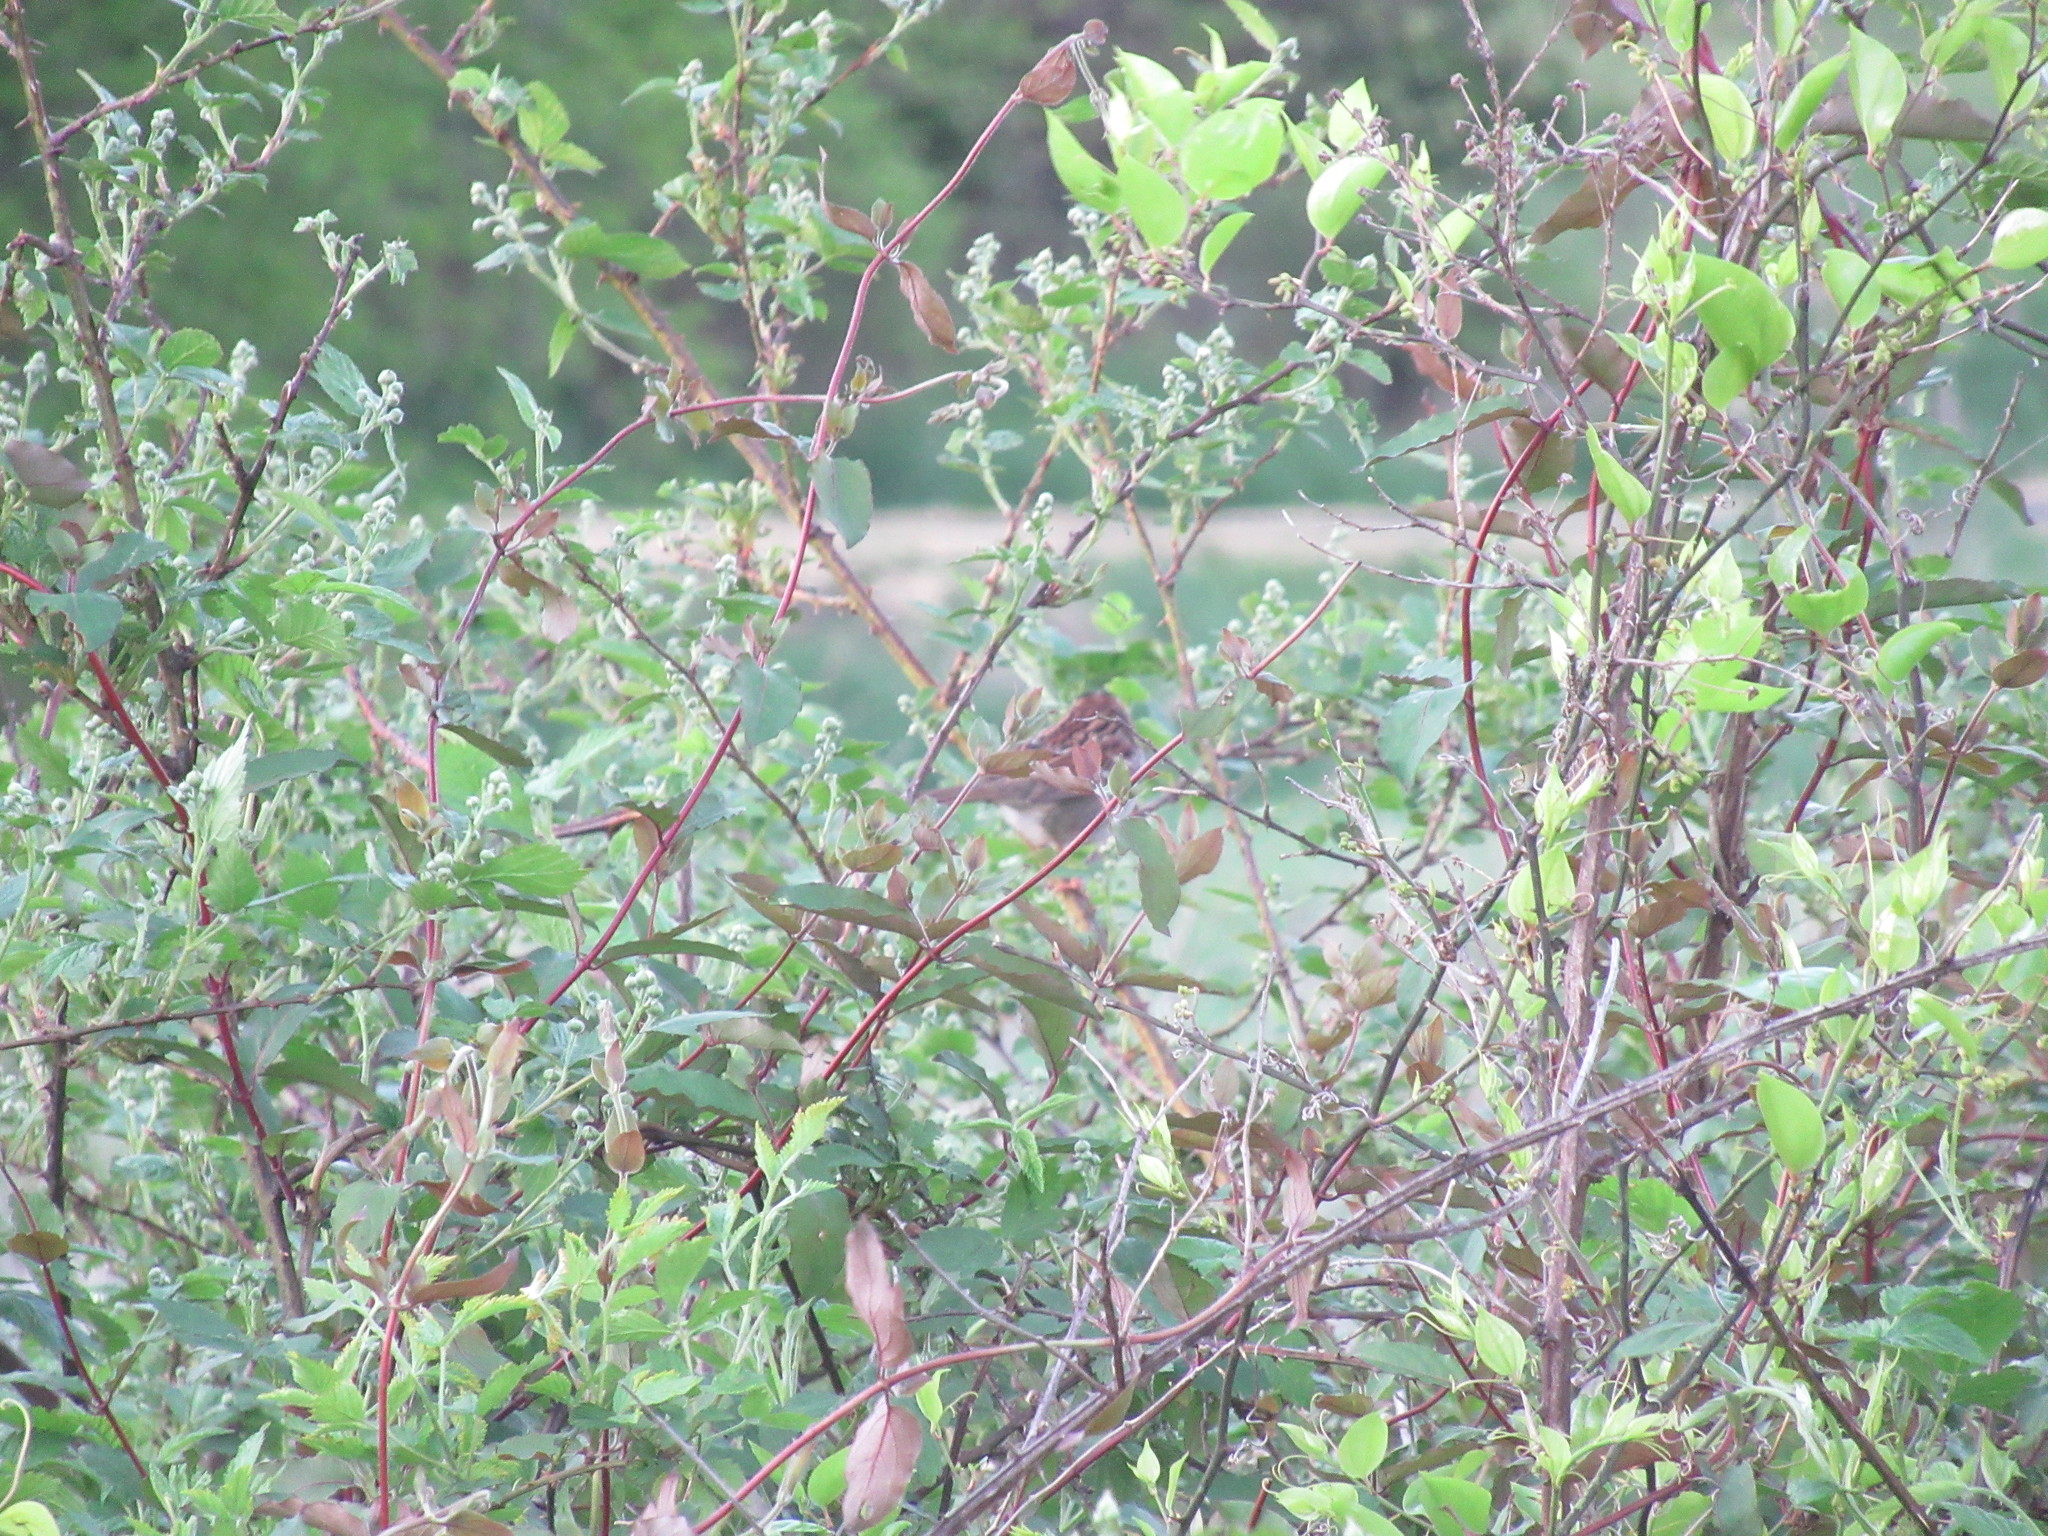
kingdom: Animalia
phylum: Chordata
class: Aves
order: Passeriformes
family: Passerellidae
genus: Zonotrichia
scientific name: Zonotrichia albicollis
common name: White-throated sparrow
